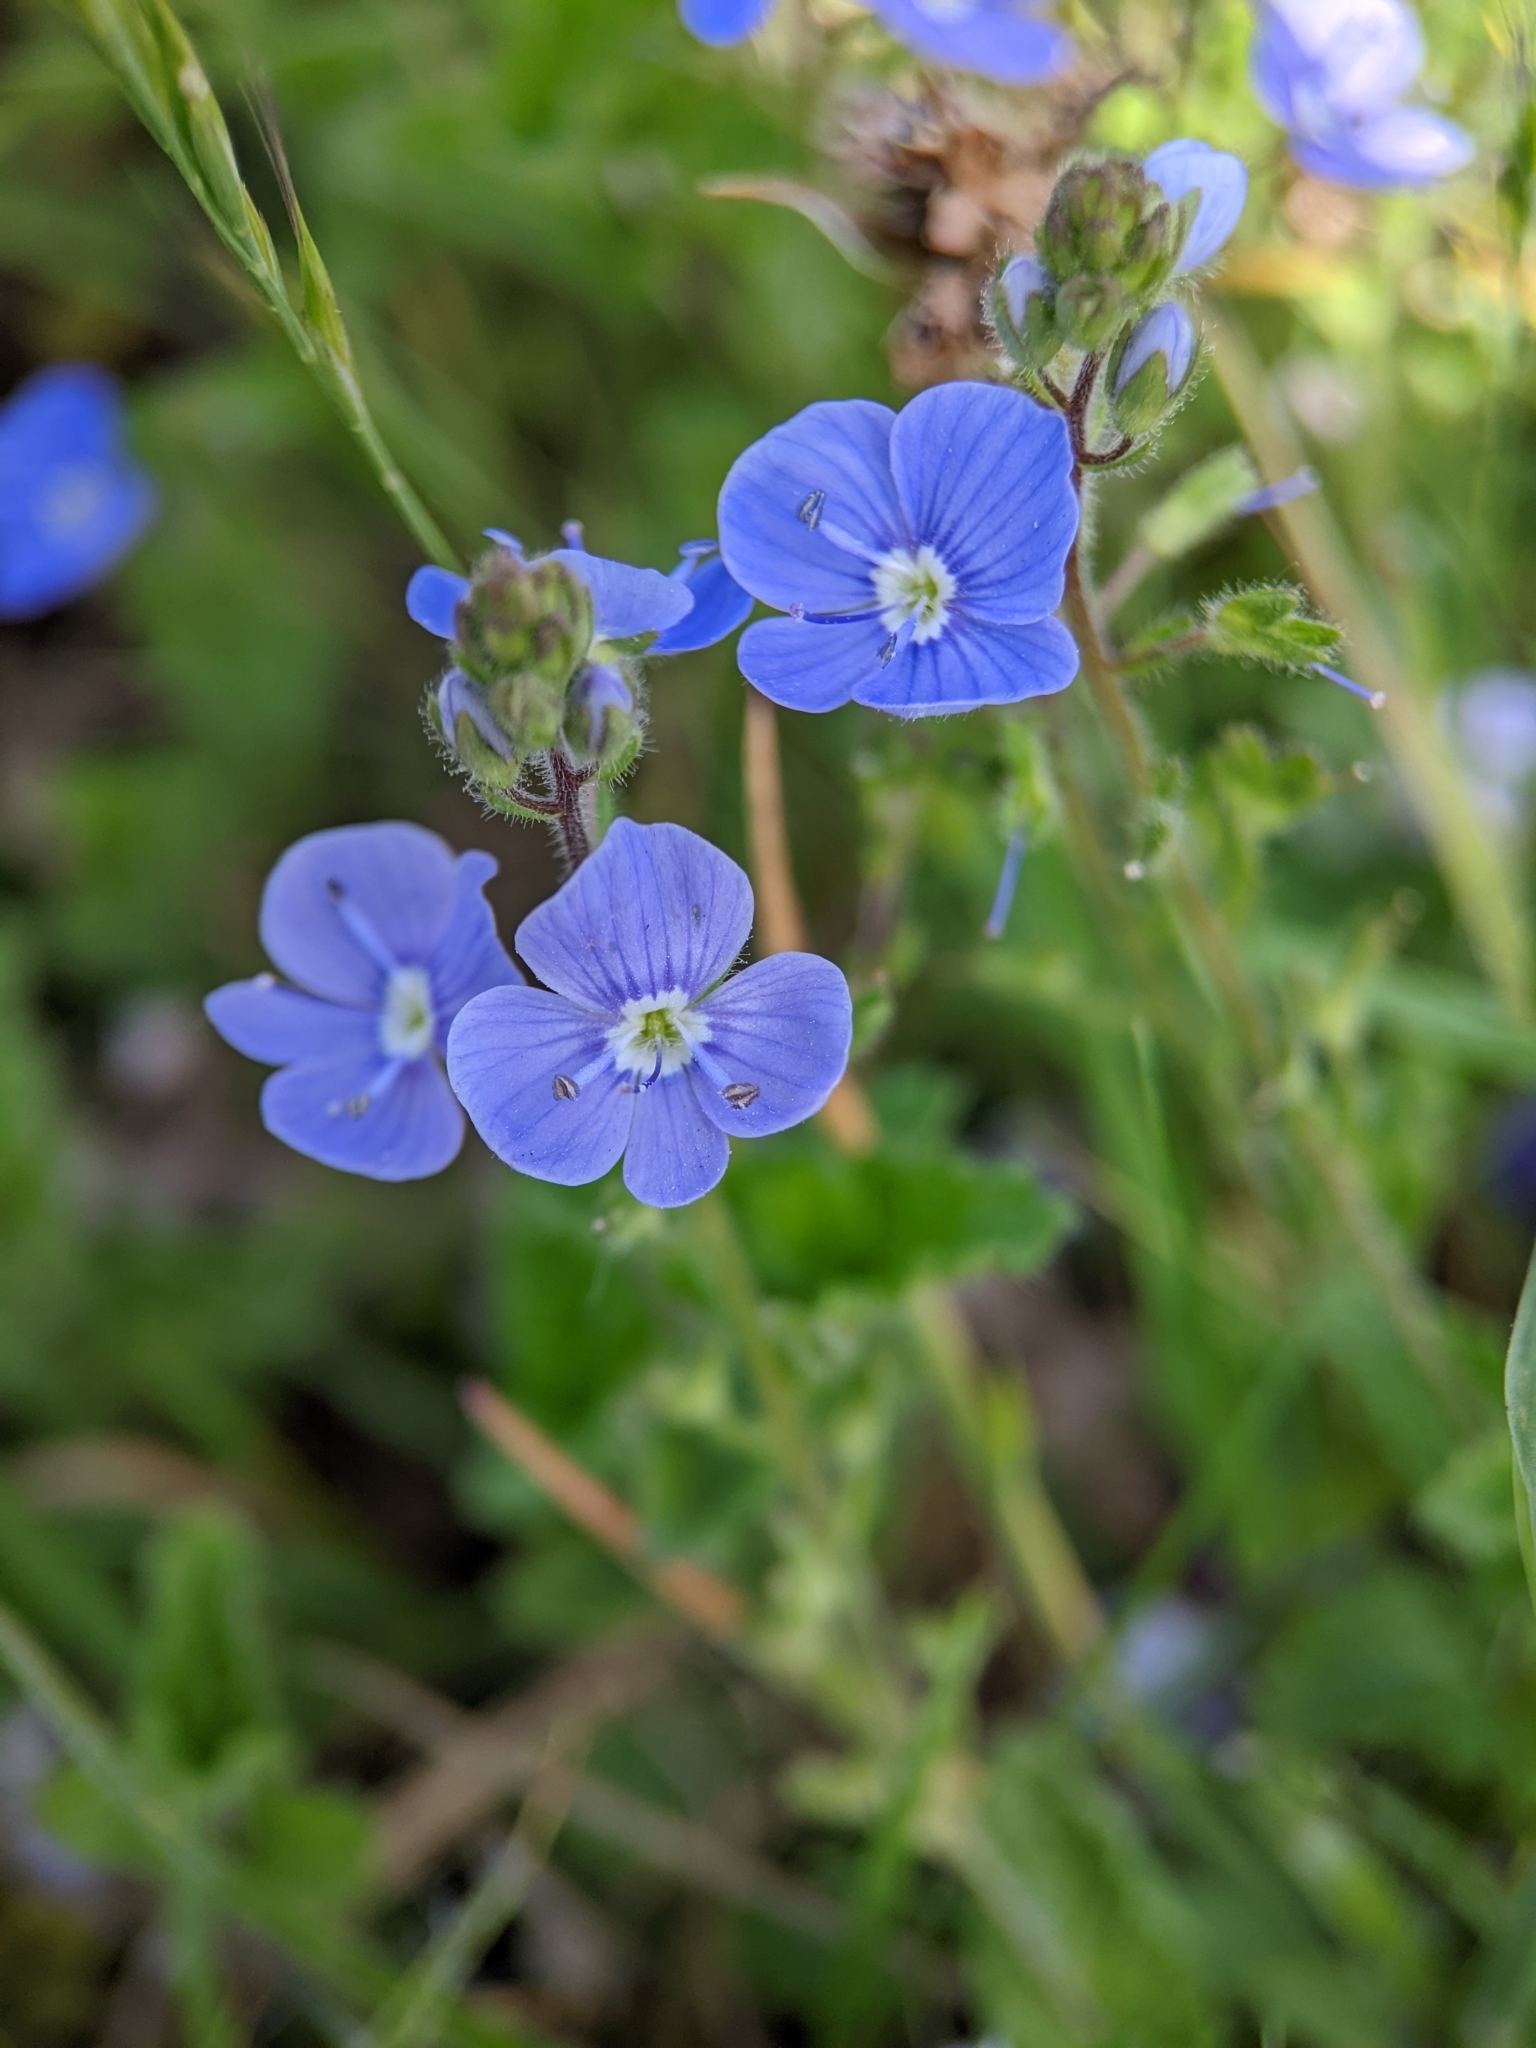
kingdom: Plantae
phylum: Tracheophyta
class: Magnoliopsida
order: Lamiales
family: Plantaginaceae
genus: Veronica
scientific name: Veronica chamaedrys
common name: Germander speedwell
